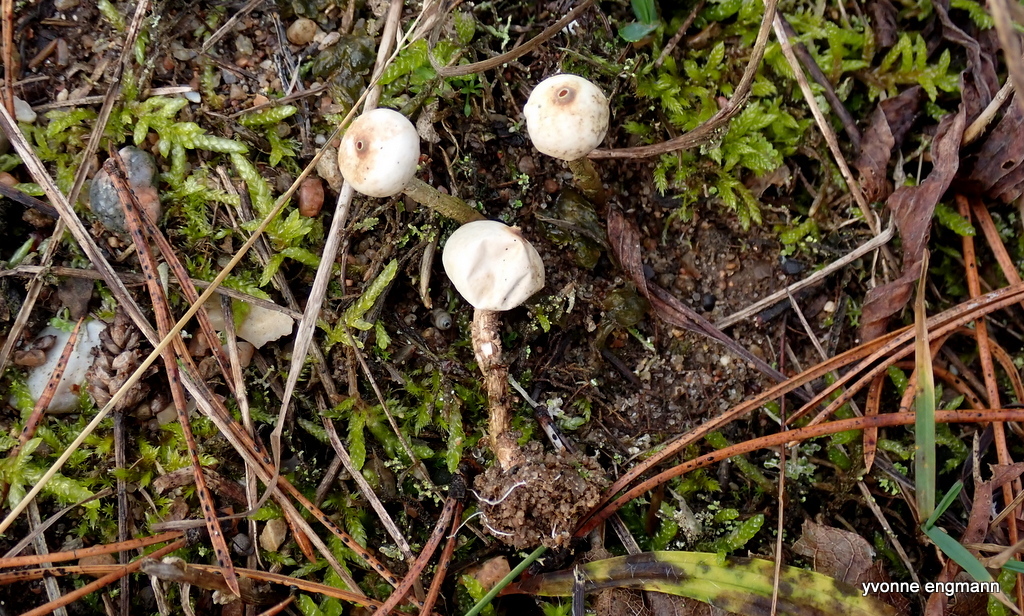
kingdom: Fungi
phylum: Basidiomycota
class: Agaricomycetes
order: Agaricales
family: Agaricaceae
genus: Tulostoma
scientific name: Tulostoma brumale
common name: Winter stalk puffball
